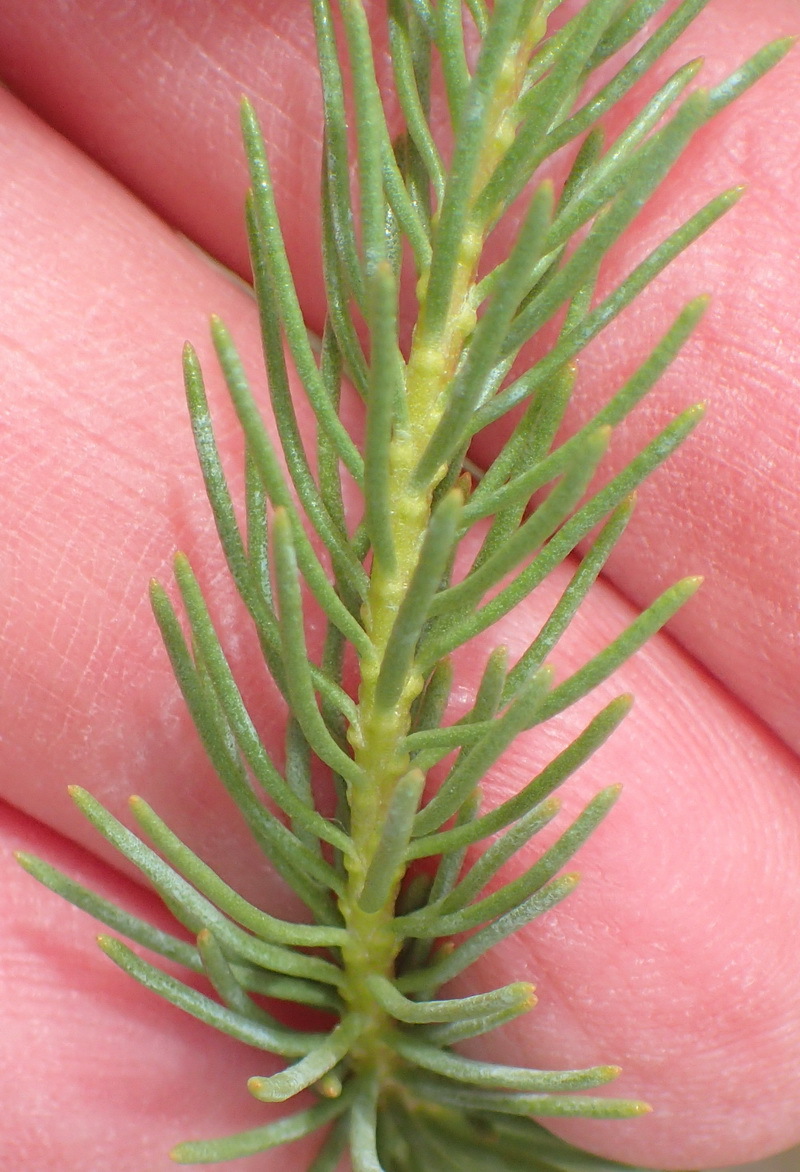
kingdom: Plantae
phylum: Tracheophyta
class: Magnoliopsida
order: Asterales
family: Asteraceae
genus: Athanasia
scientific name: Athanasia vestita
